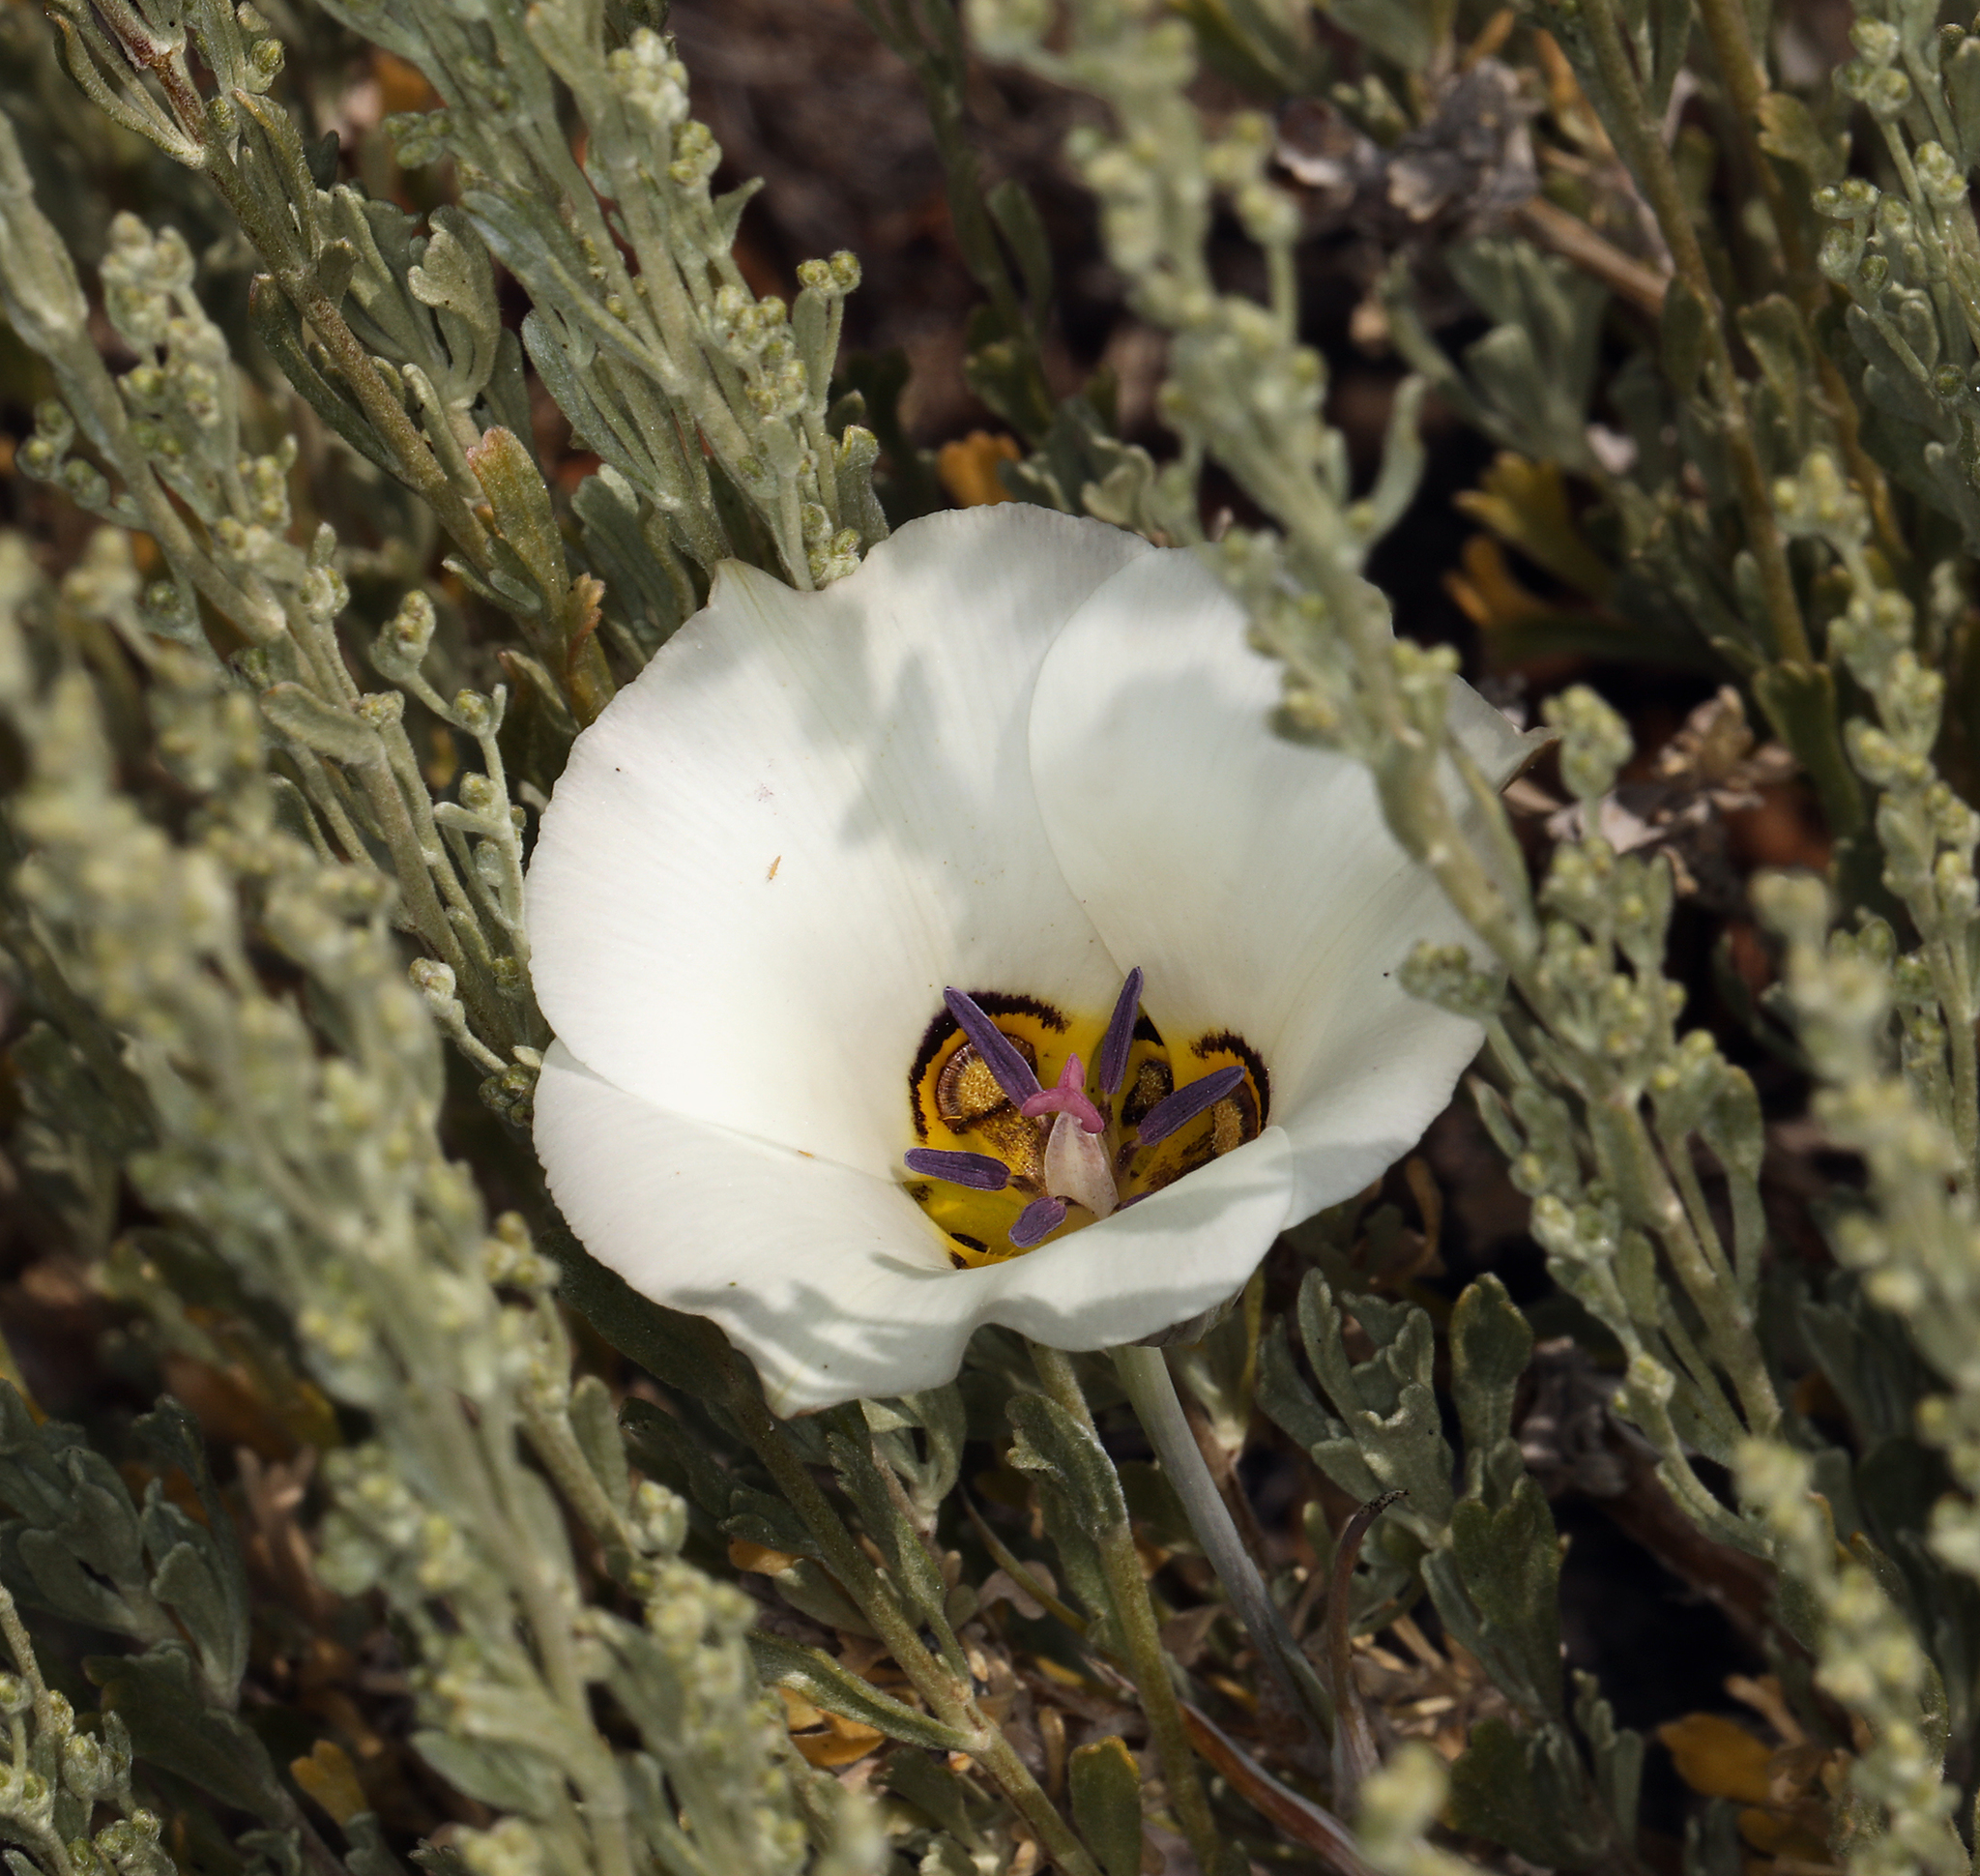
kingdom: Plantae
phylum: Tracheophyta
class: Liliopsida
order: Liliales
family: Liliaceae
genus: Calochortus
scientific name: Calochortus bruneaunis
